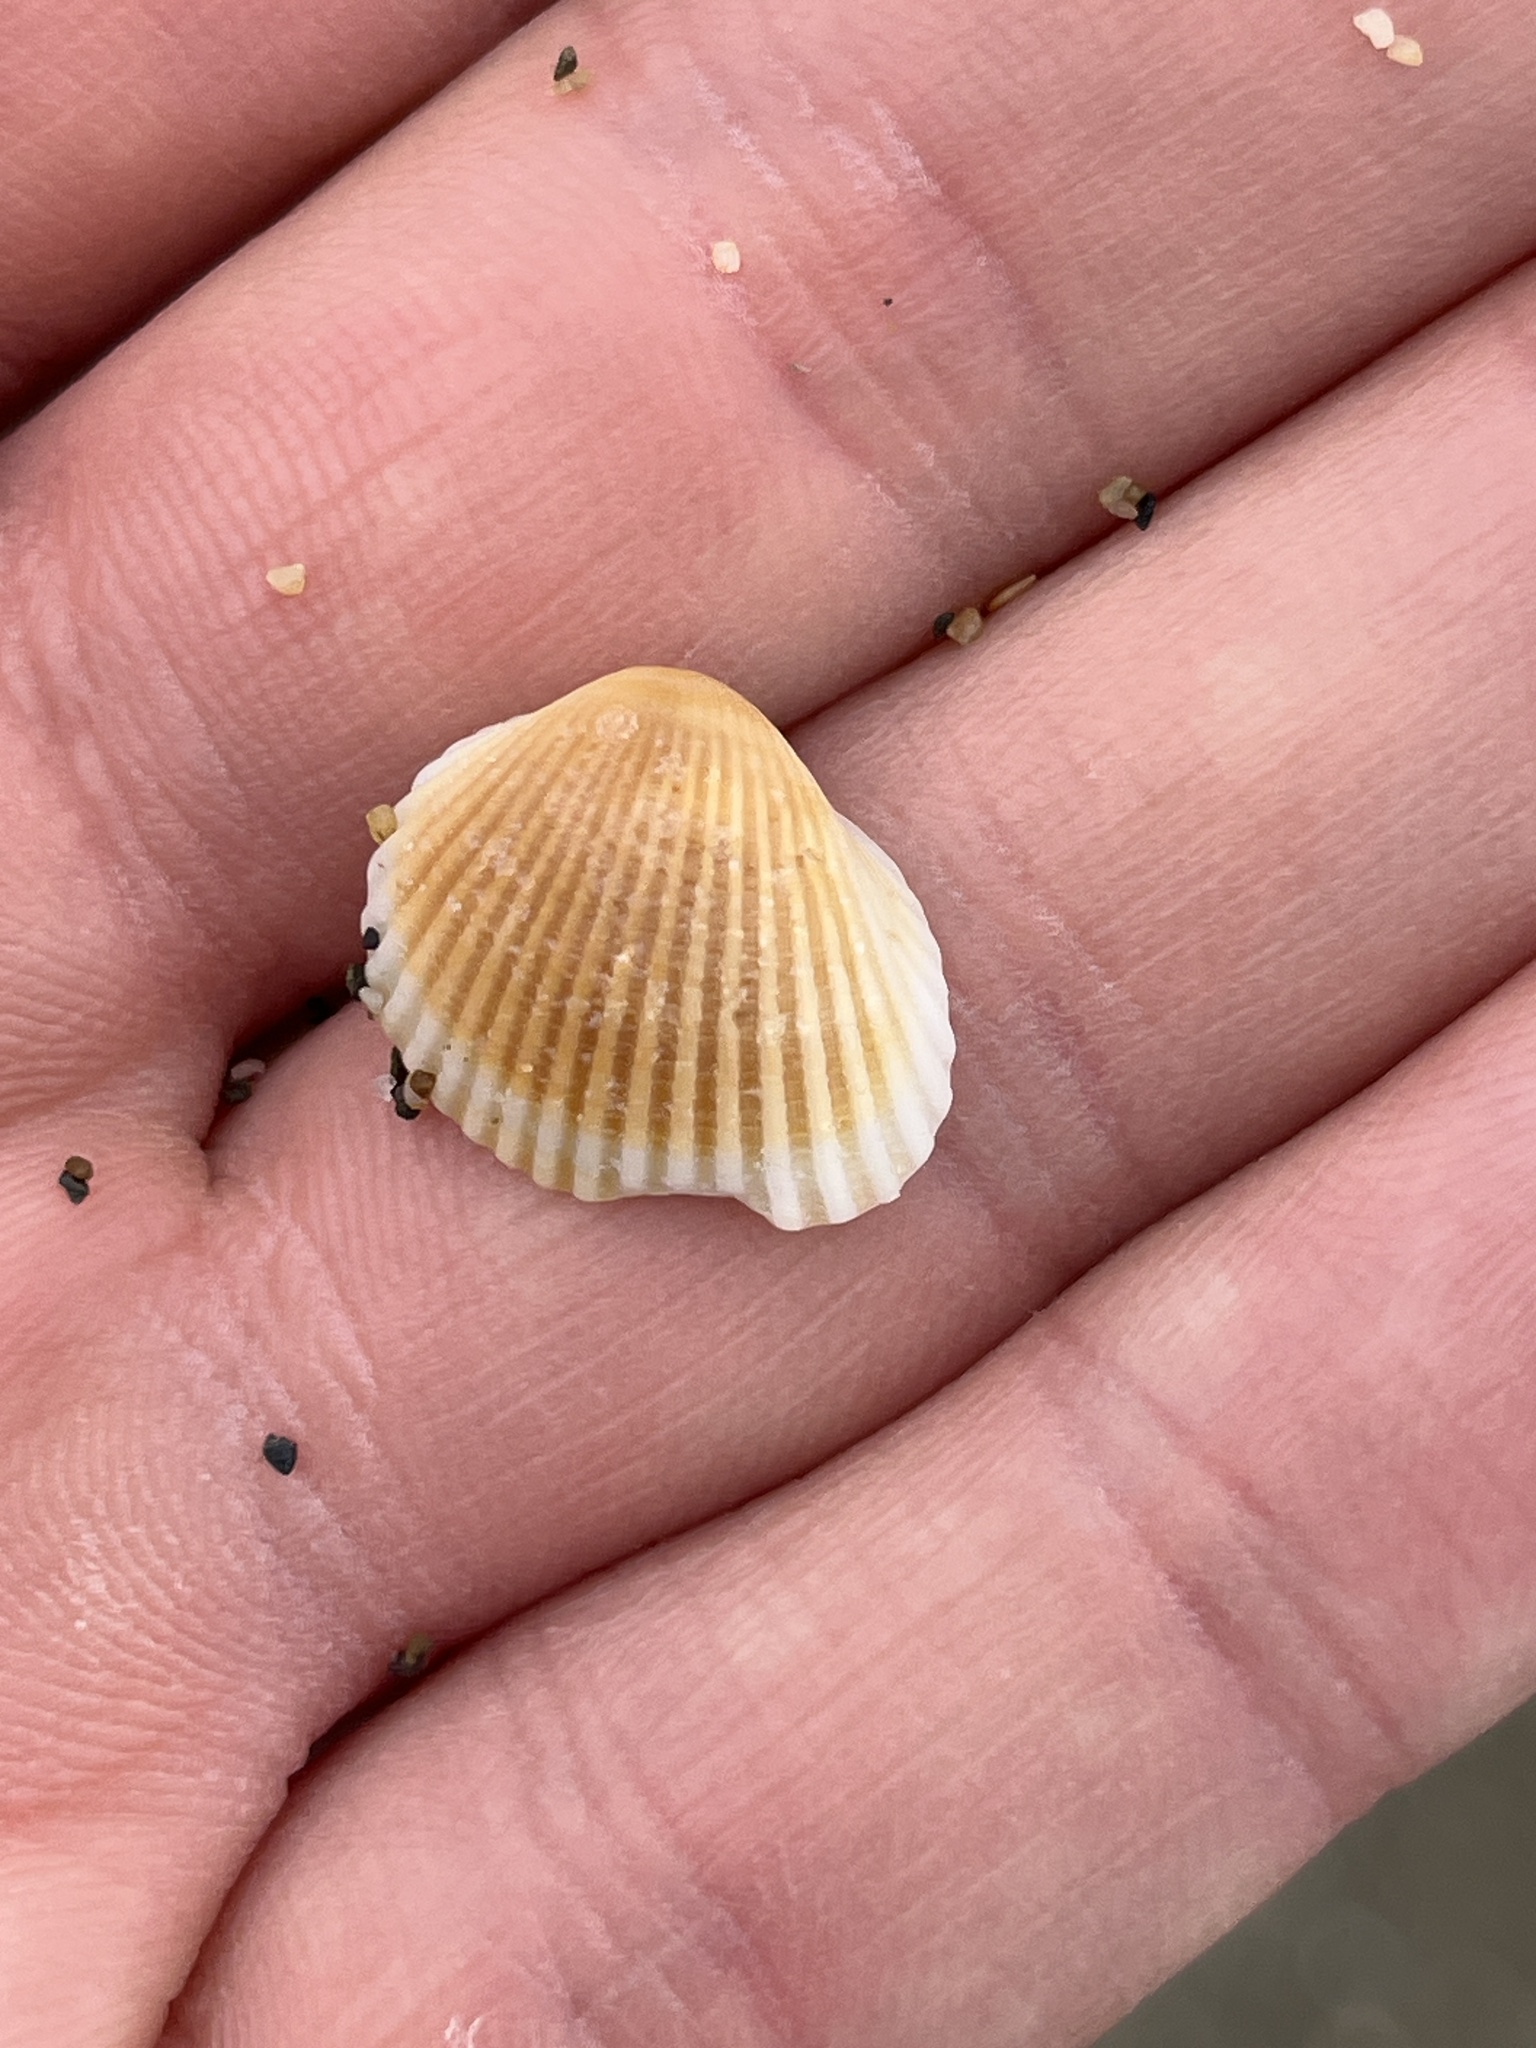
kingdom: Animalia
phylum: Mollusca
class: Bivalvia
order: Arcida
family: Arcidae
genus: Anadara
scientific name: Anadara gibbosa
